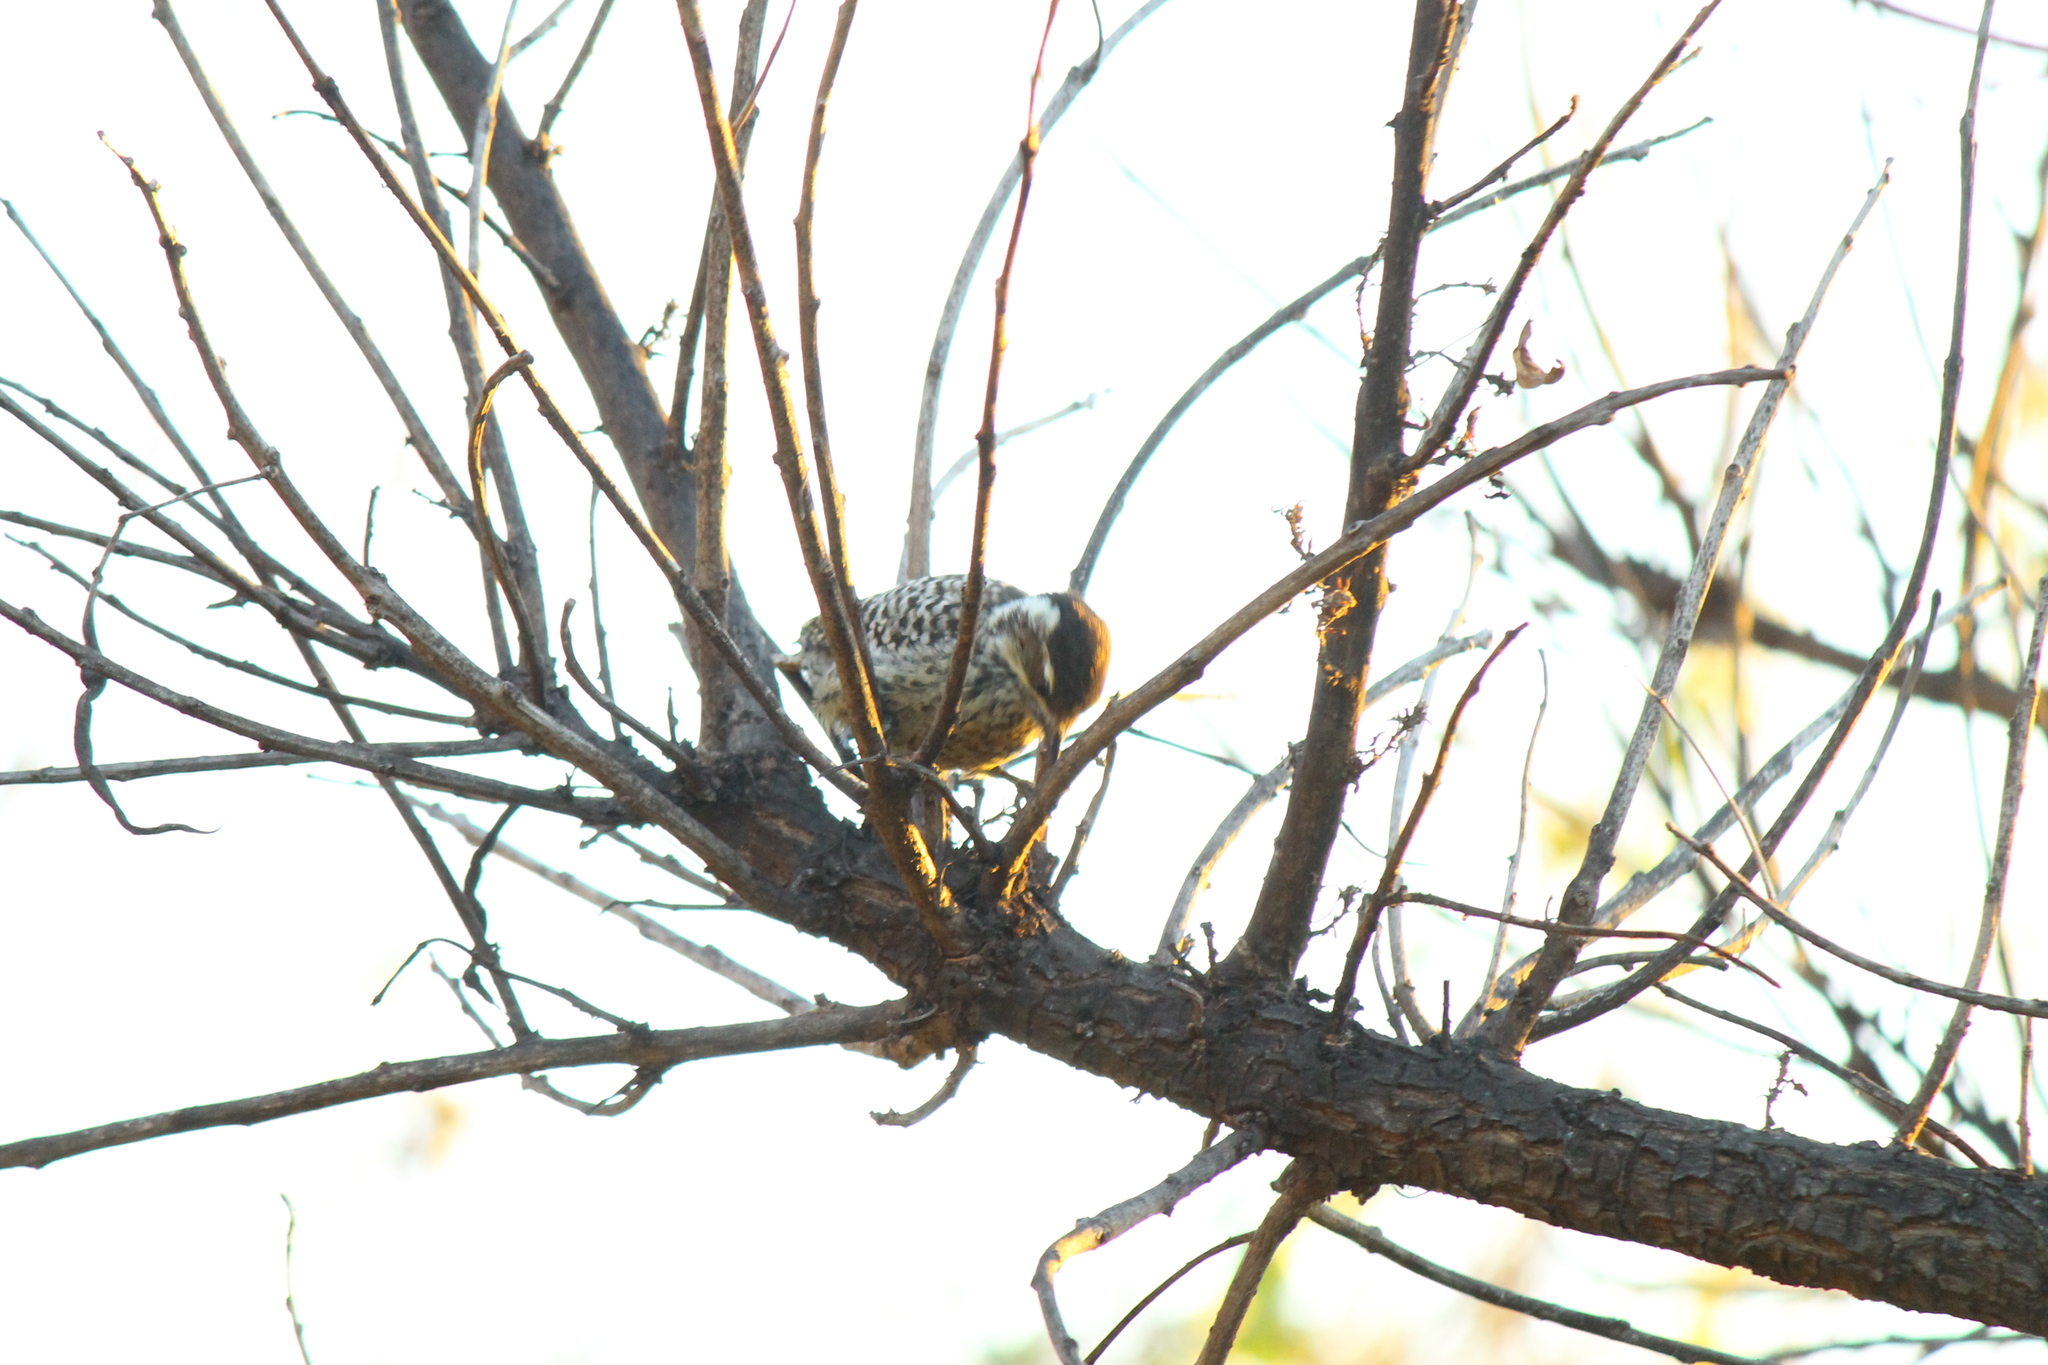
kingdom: Animalia
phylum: Chordata
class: Aves
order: Piciformes
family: Picidae
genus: Veniliornis
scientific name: Veniliornis mixtus
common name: Checkered woodpecker
